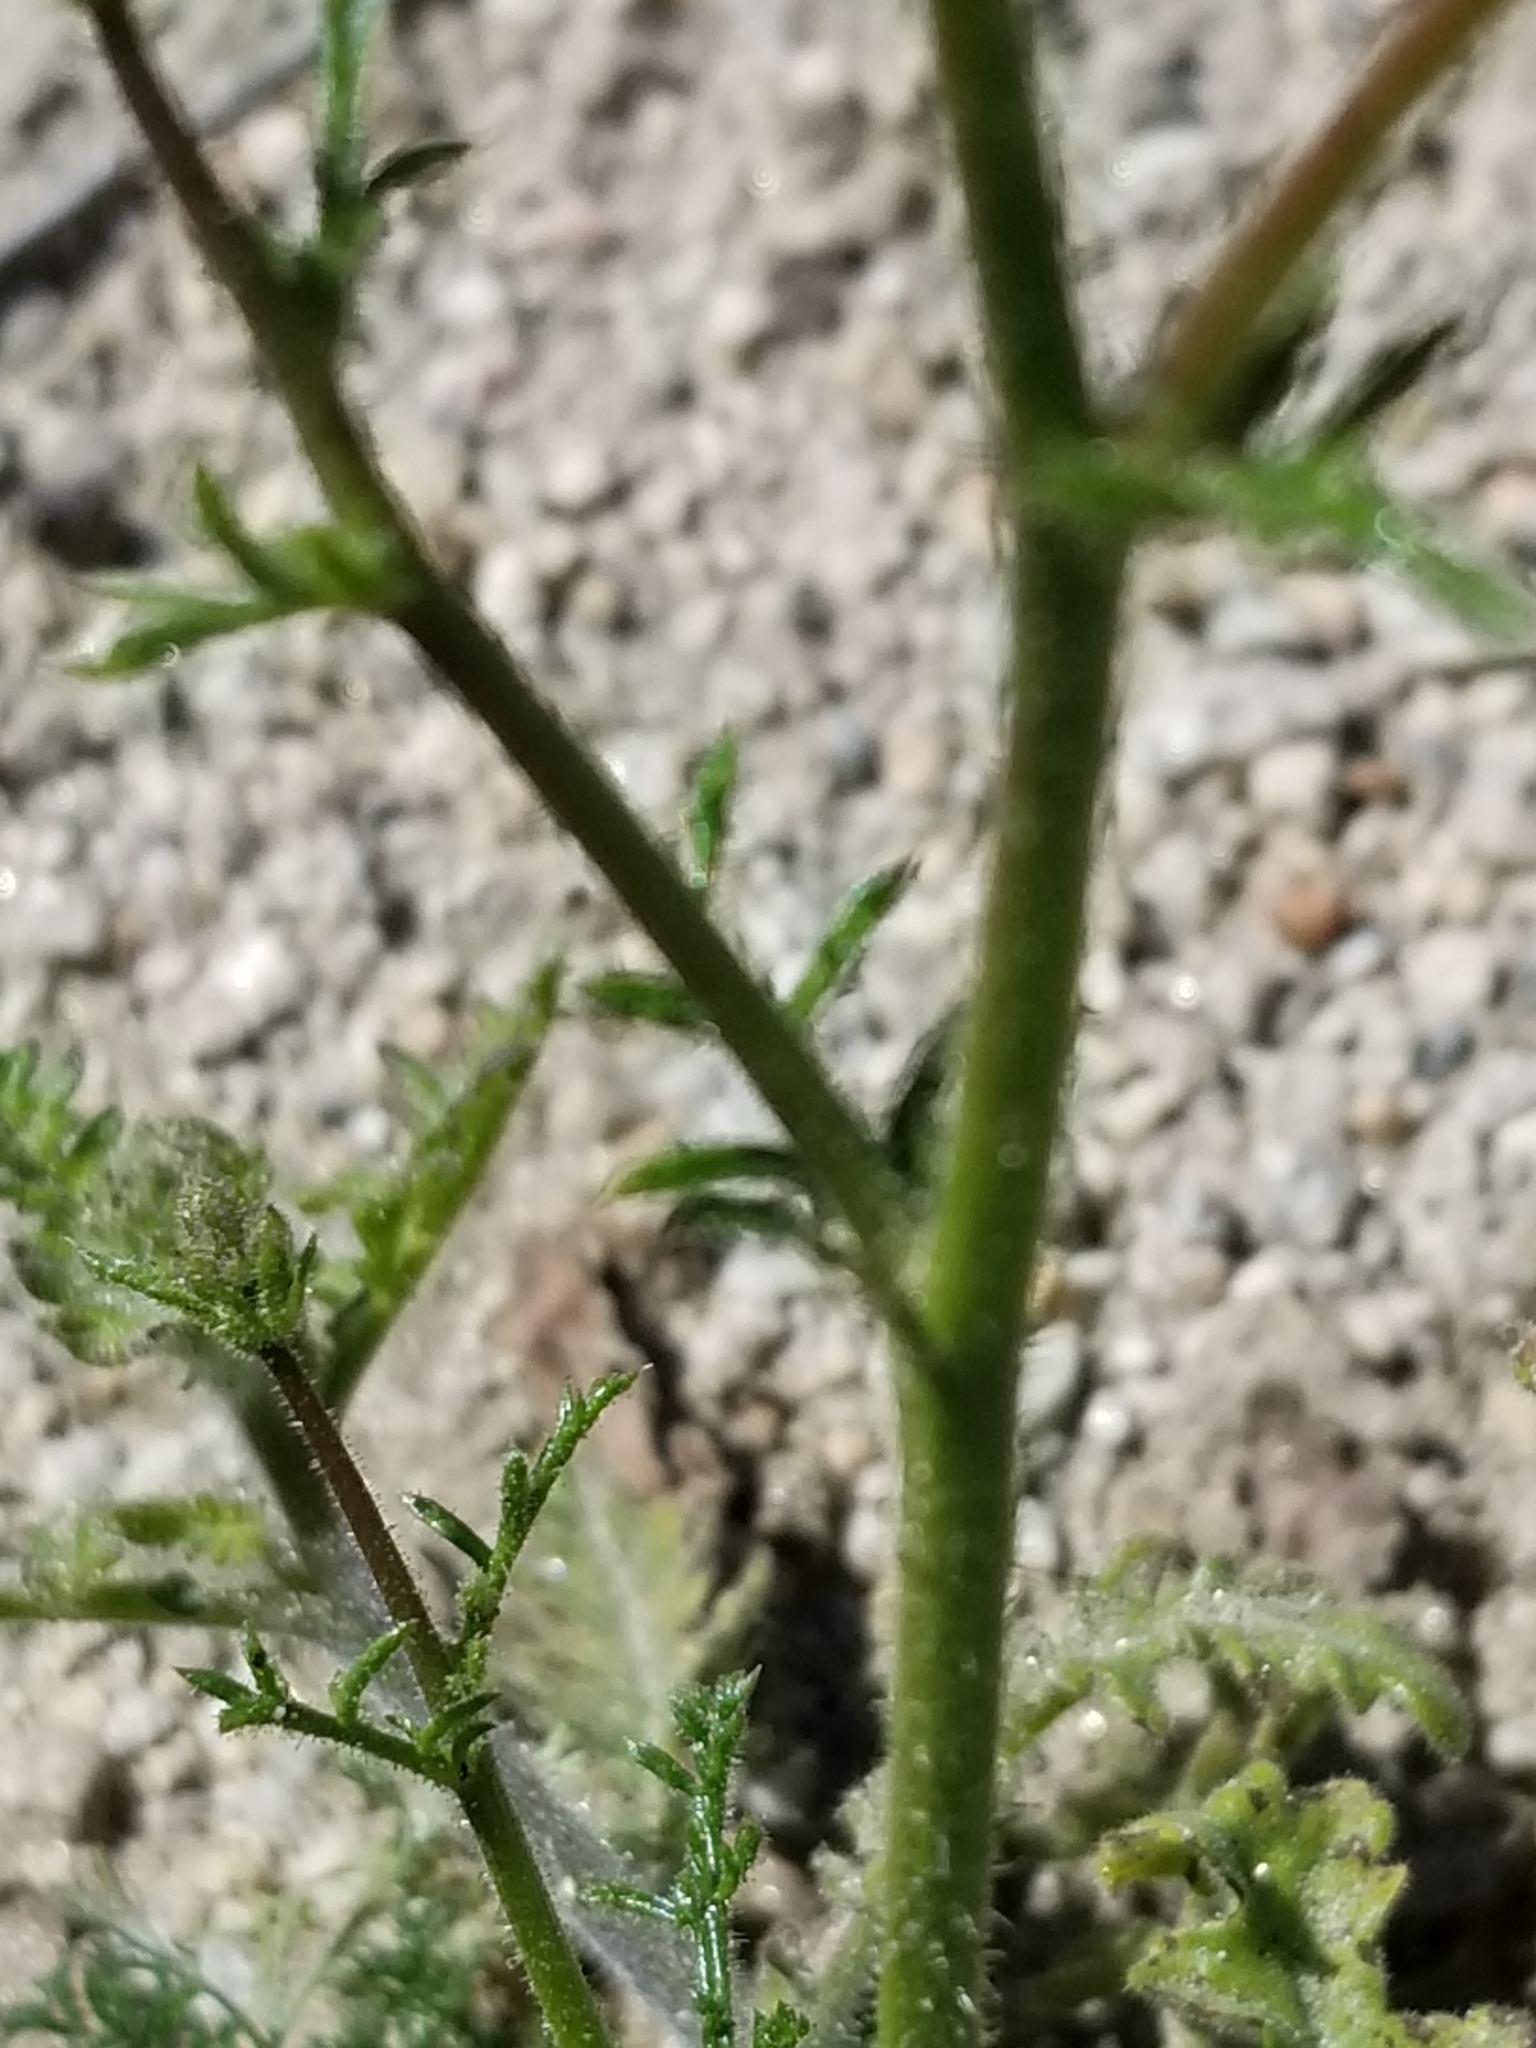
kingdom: Plantae
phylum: Tracheophyta
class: Magnoliopsida
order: Ericales
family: Polemoniaceae
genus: Gilia
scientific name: Gilia stellata
